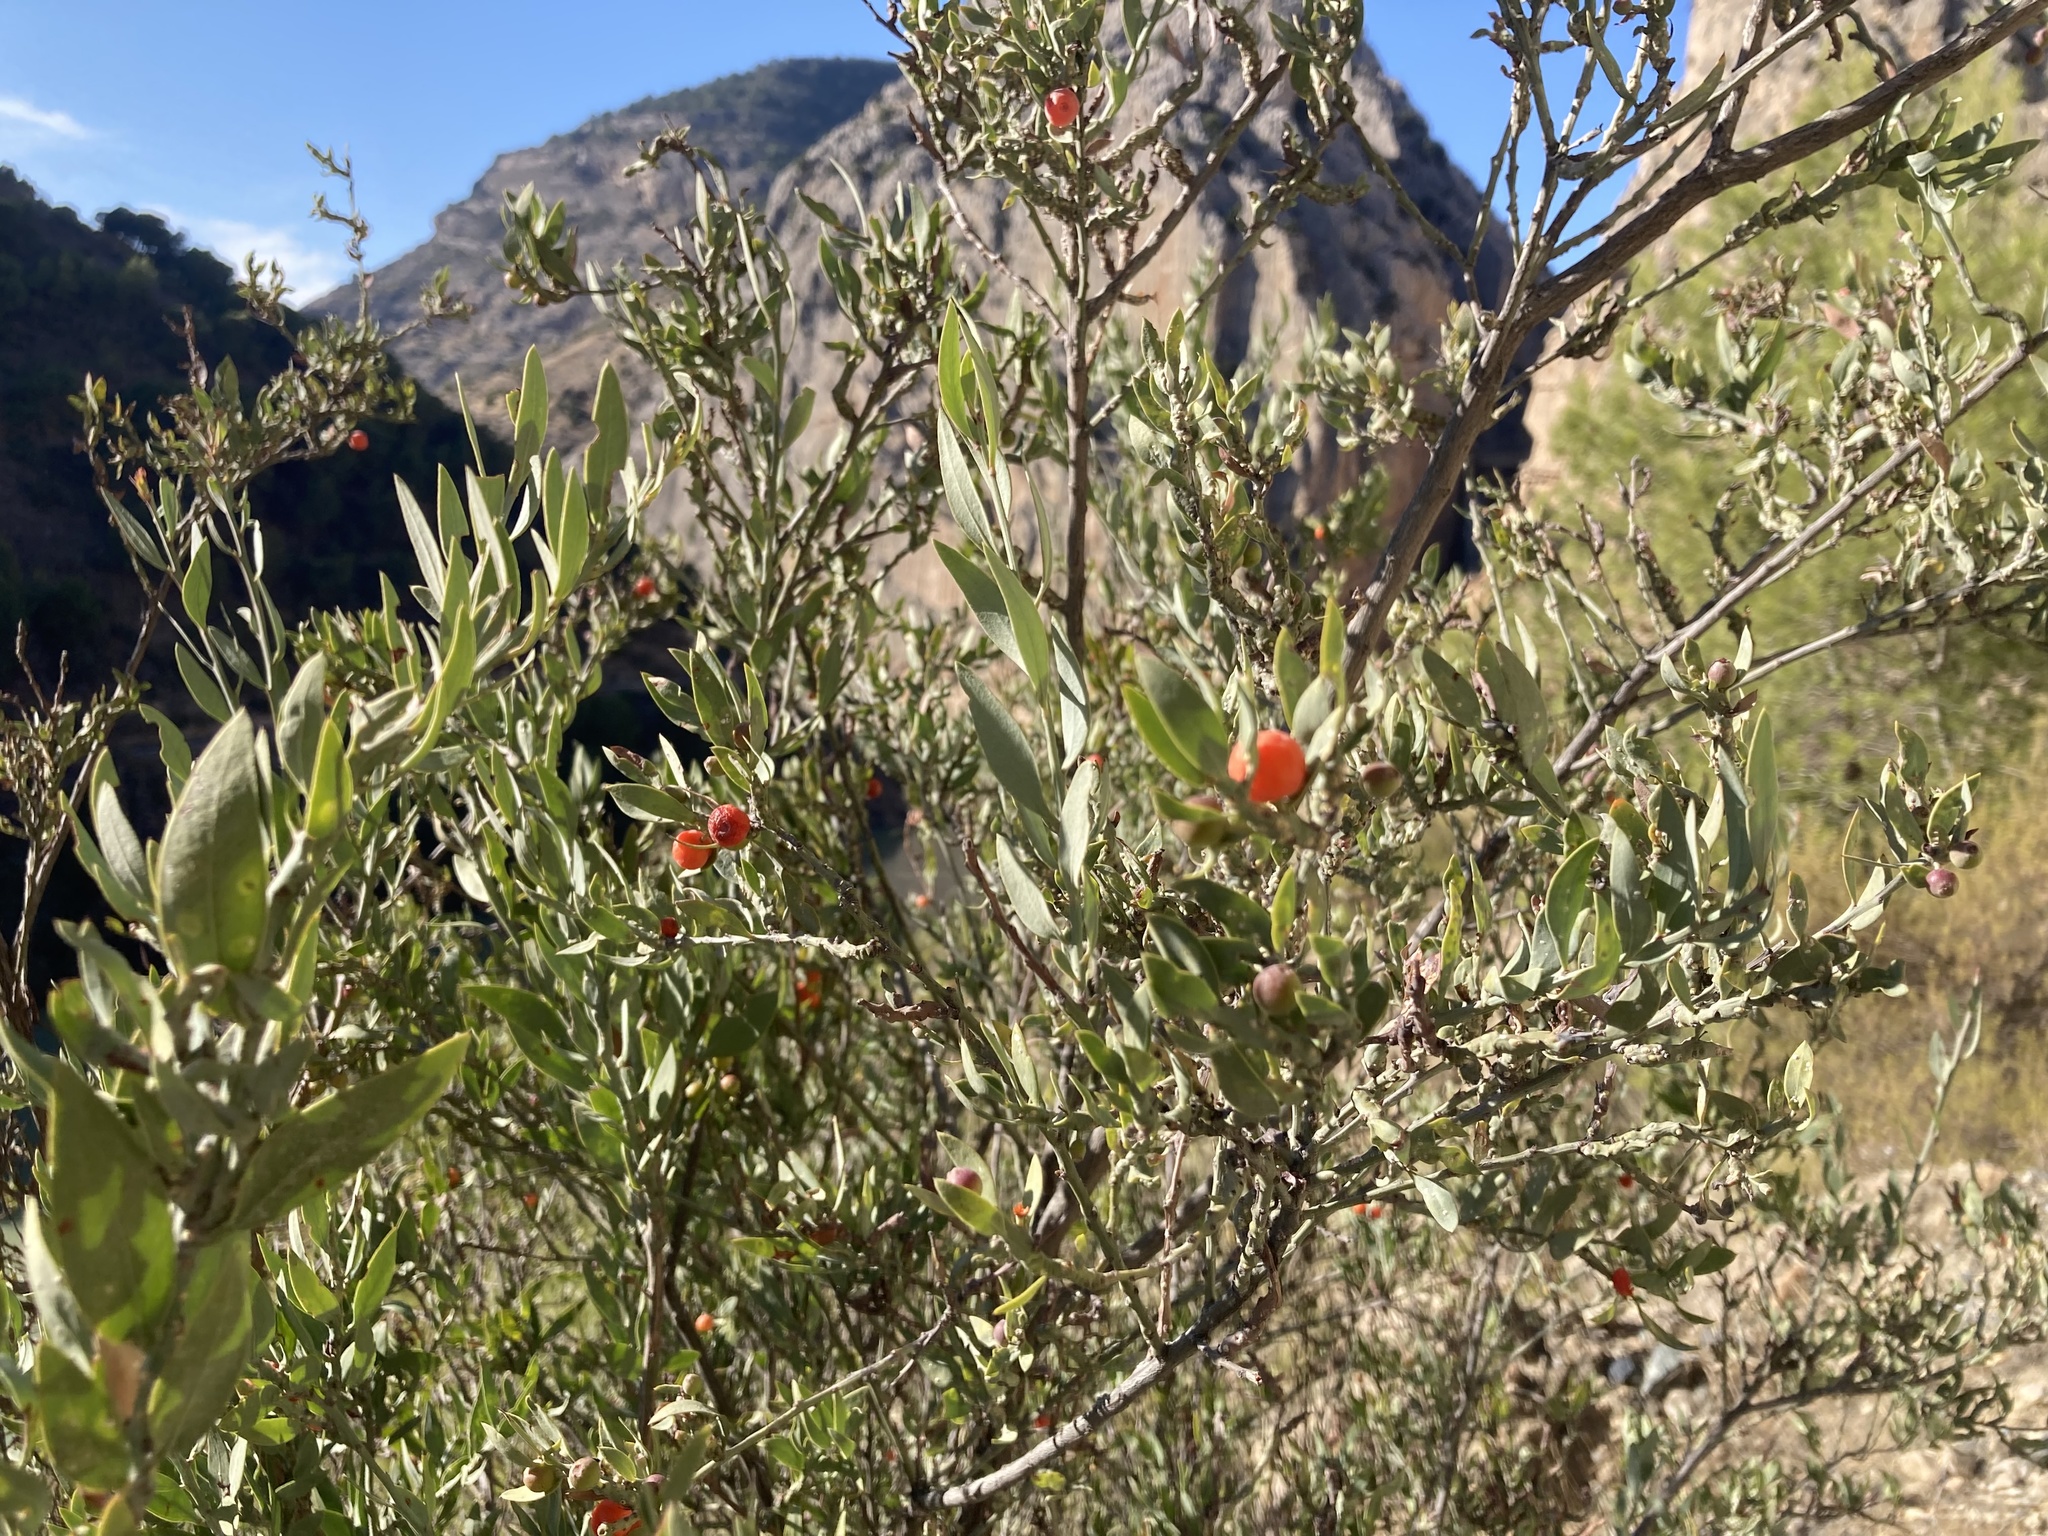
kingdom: Plantae
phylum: Tracheophyta
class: Magnoliopsida
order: Santalales
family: Santalaceae
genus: Osyris
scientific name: Osyris lanceolata
